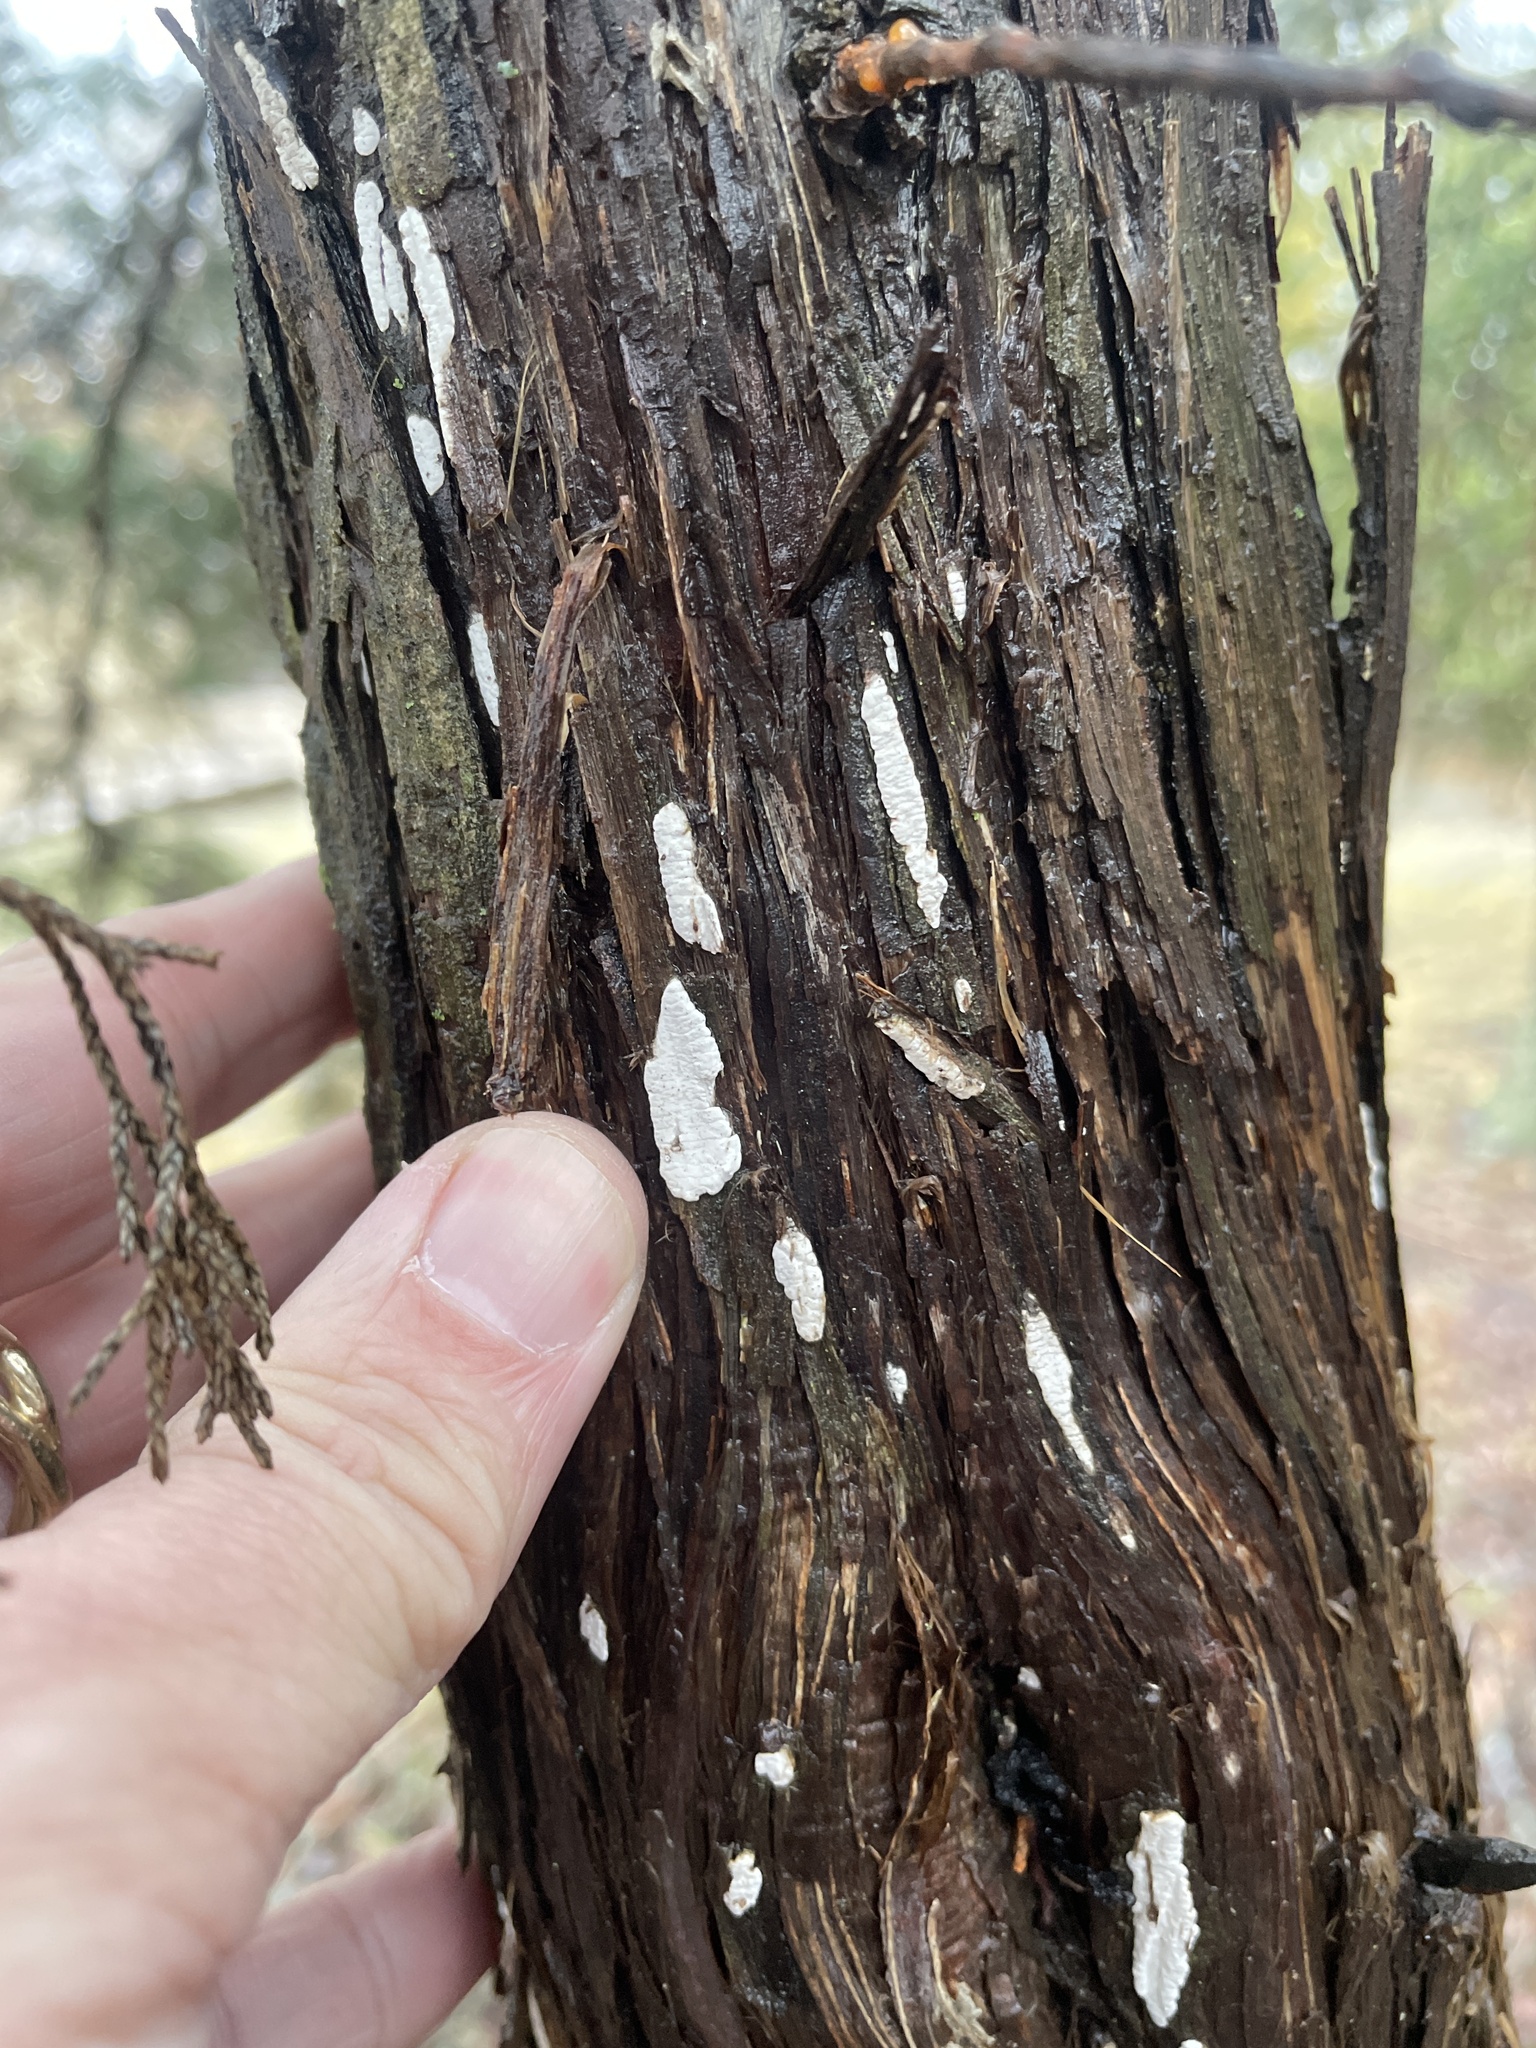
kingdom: Fungi
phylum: Basidiomycota
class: Agaricomycetes
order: Agaricales
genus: Dendrothele
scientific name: Dendrothele nivosa
